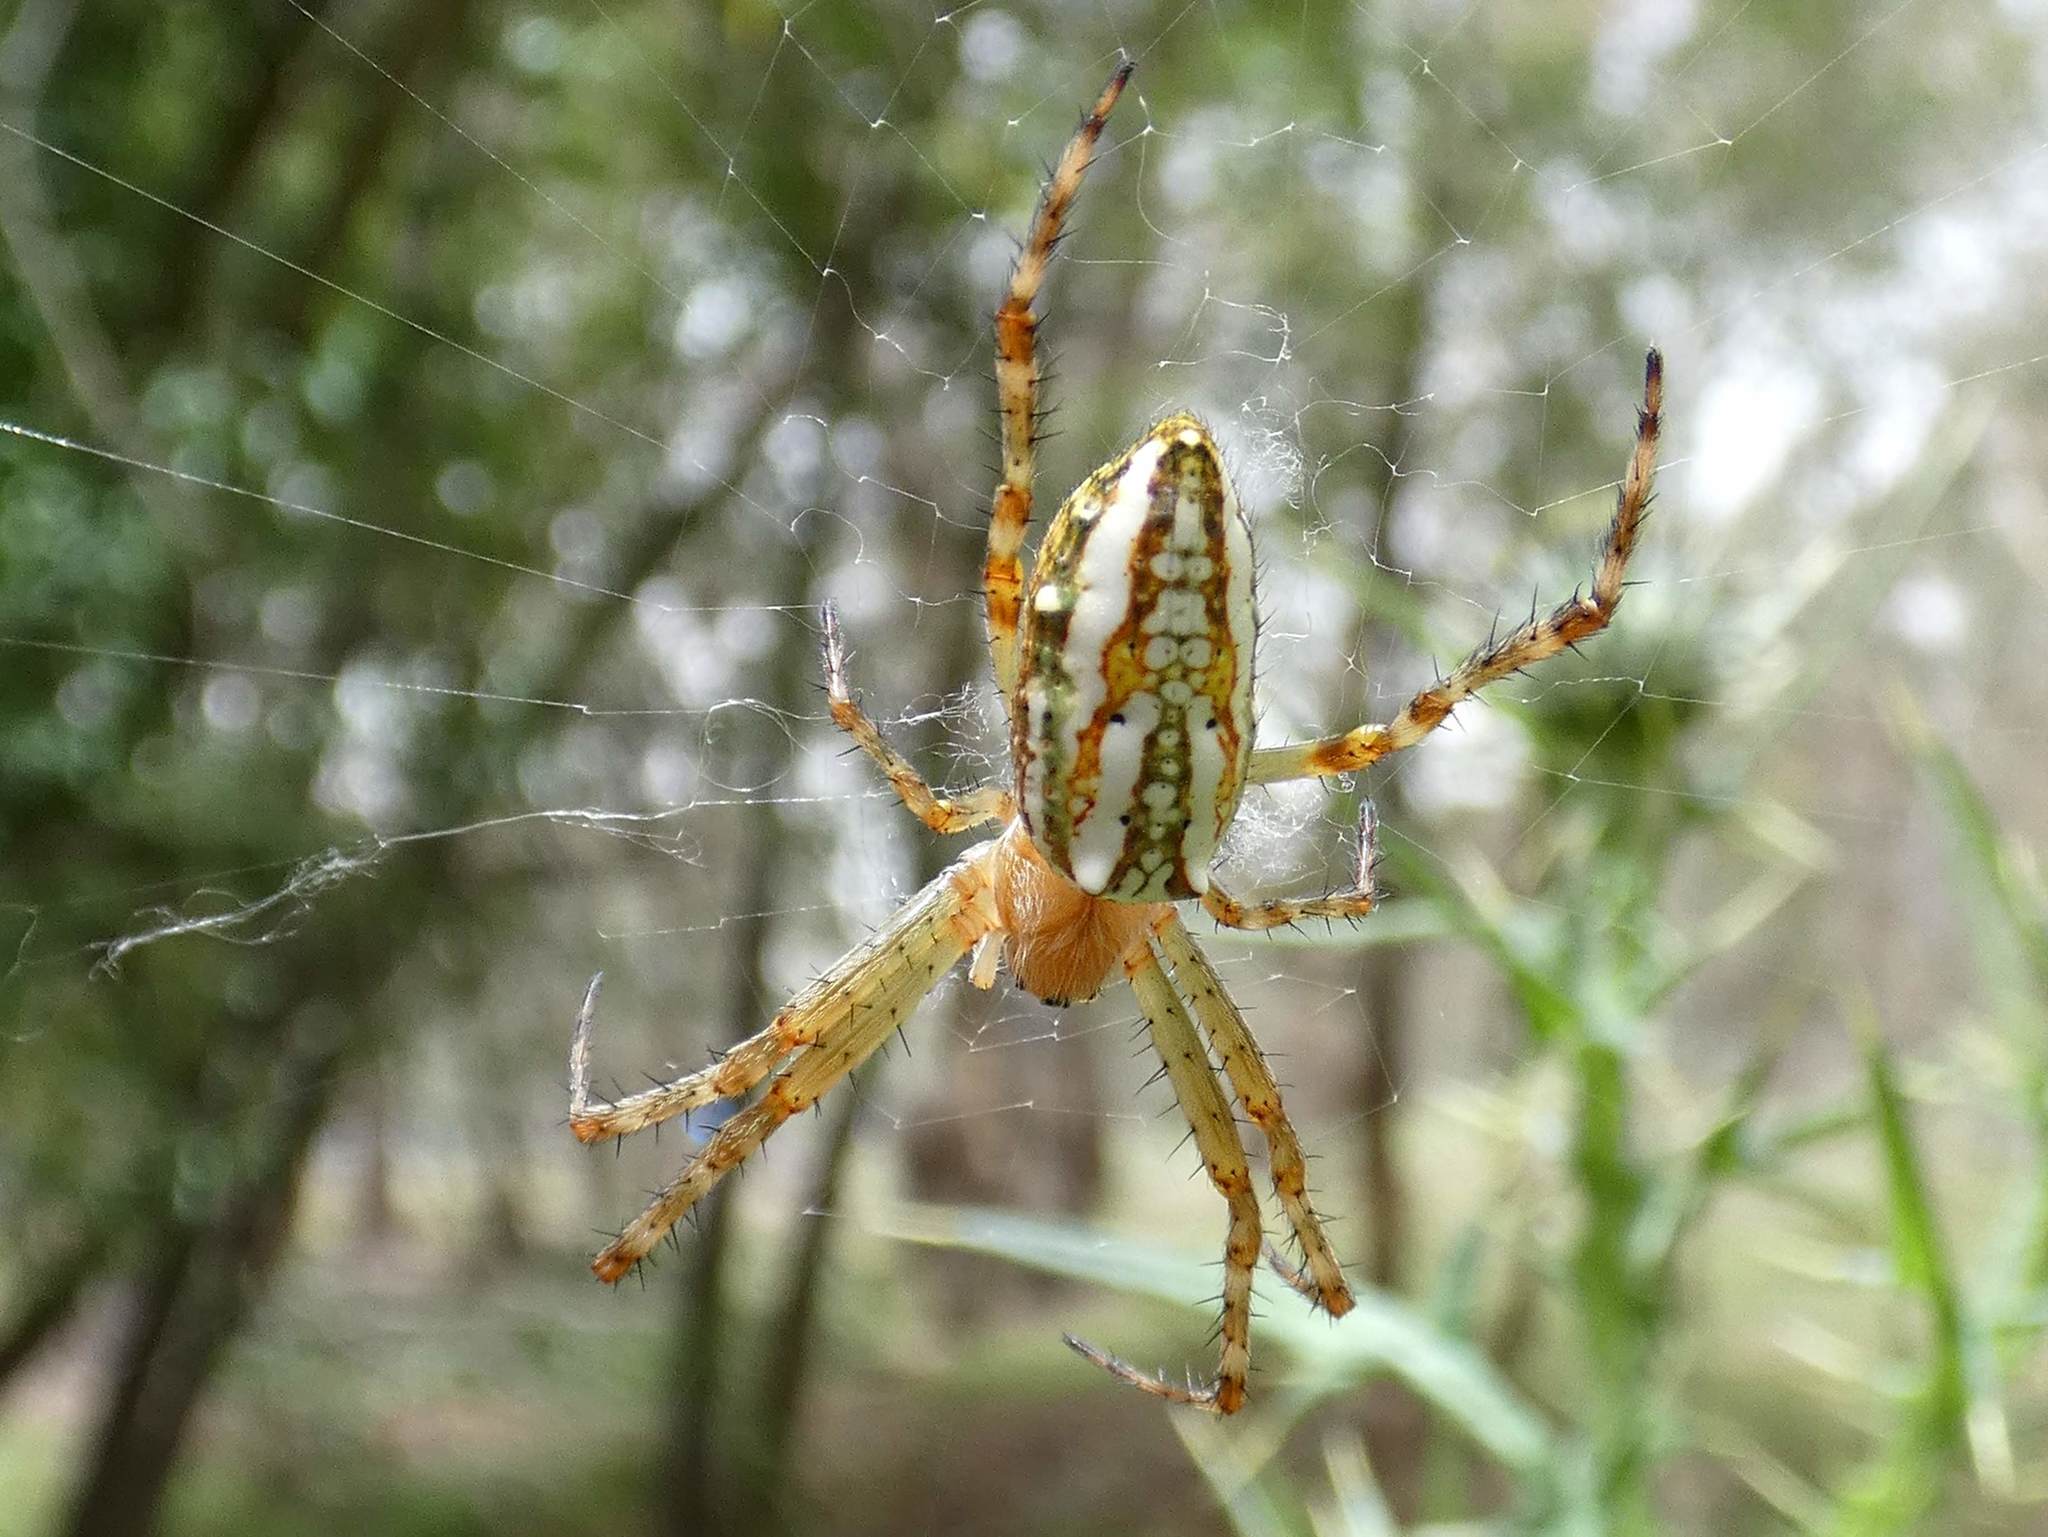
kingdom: Animalia
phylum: Arthropoda
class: Arachnida
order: Araneae
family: Araneidae
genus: Plebs
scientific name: Plebs bradleyi
